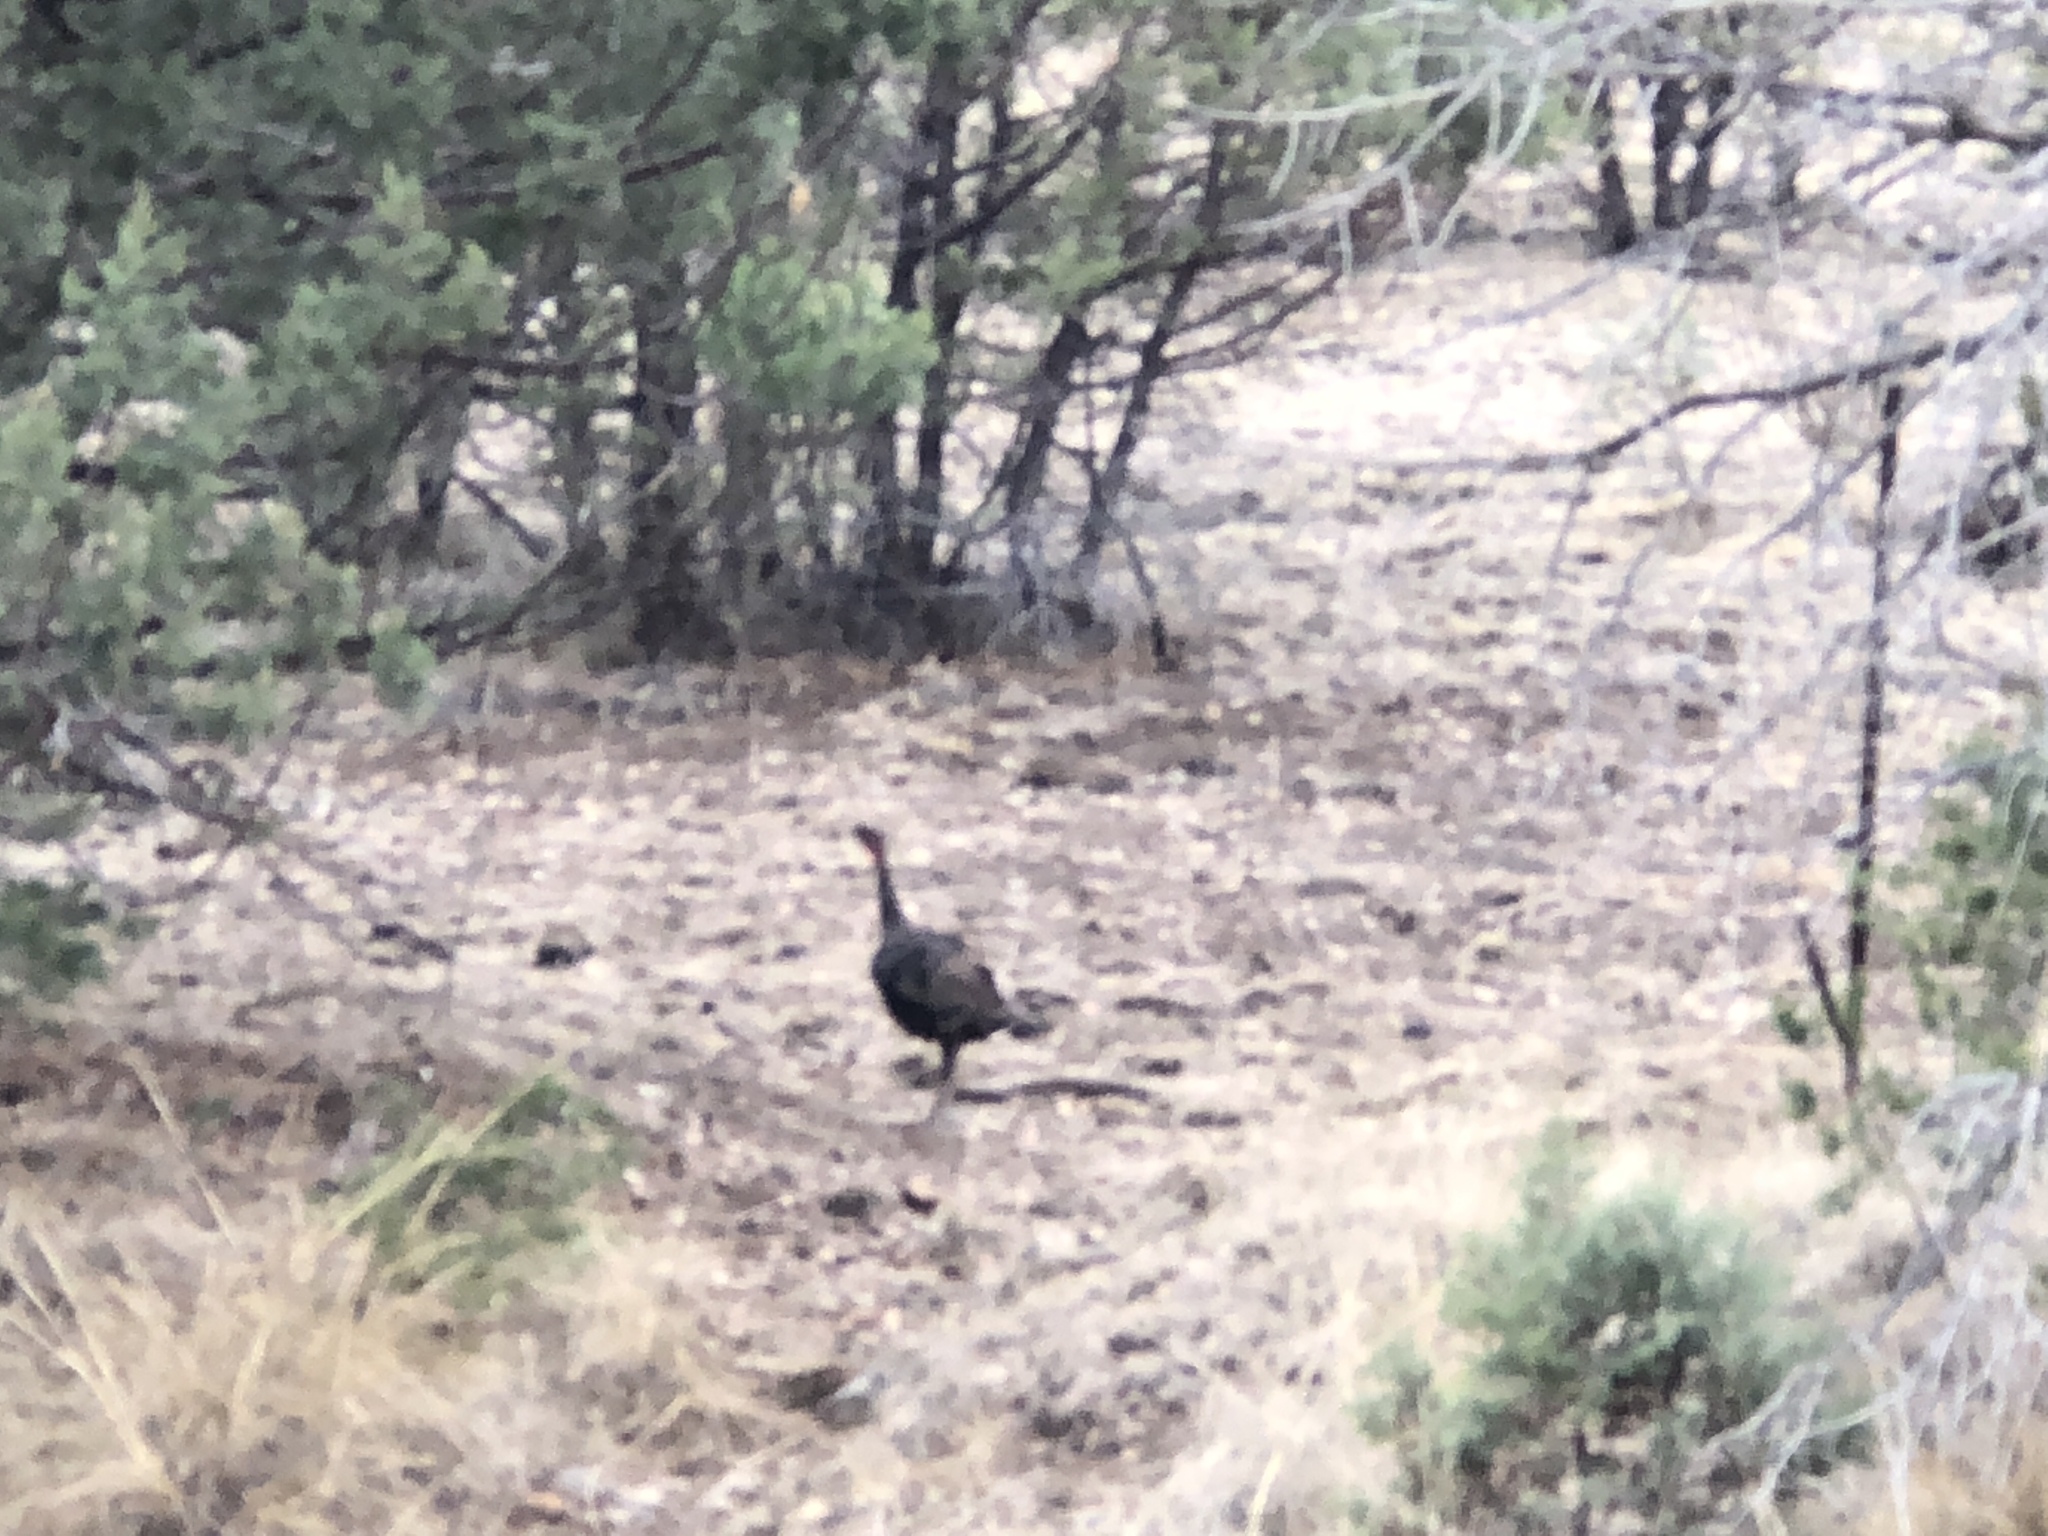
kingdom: Animalia
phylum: Chordata
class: Aves
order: Galliformes
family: Phasianidae
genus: Meleagris
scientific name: Meleagris gallopavo
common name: Wild turkey
